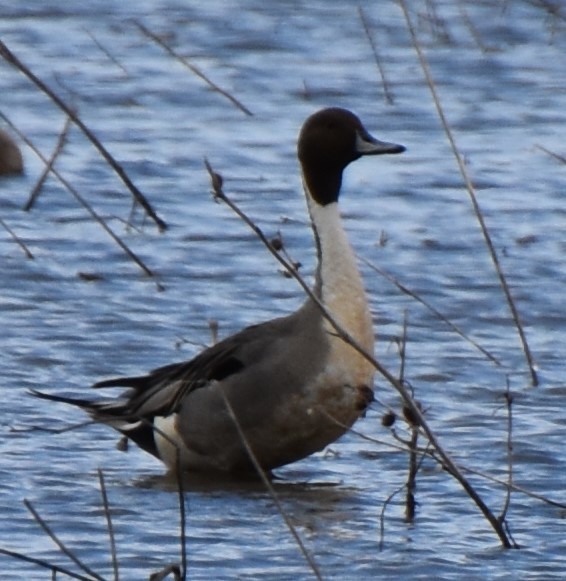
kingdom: Animalia
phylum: Chordata
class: Aves
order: Anseriformes
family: Anatidae
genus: Anas
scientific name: Anas acuta
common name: Northern pintail
